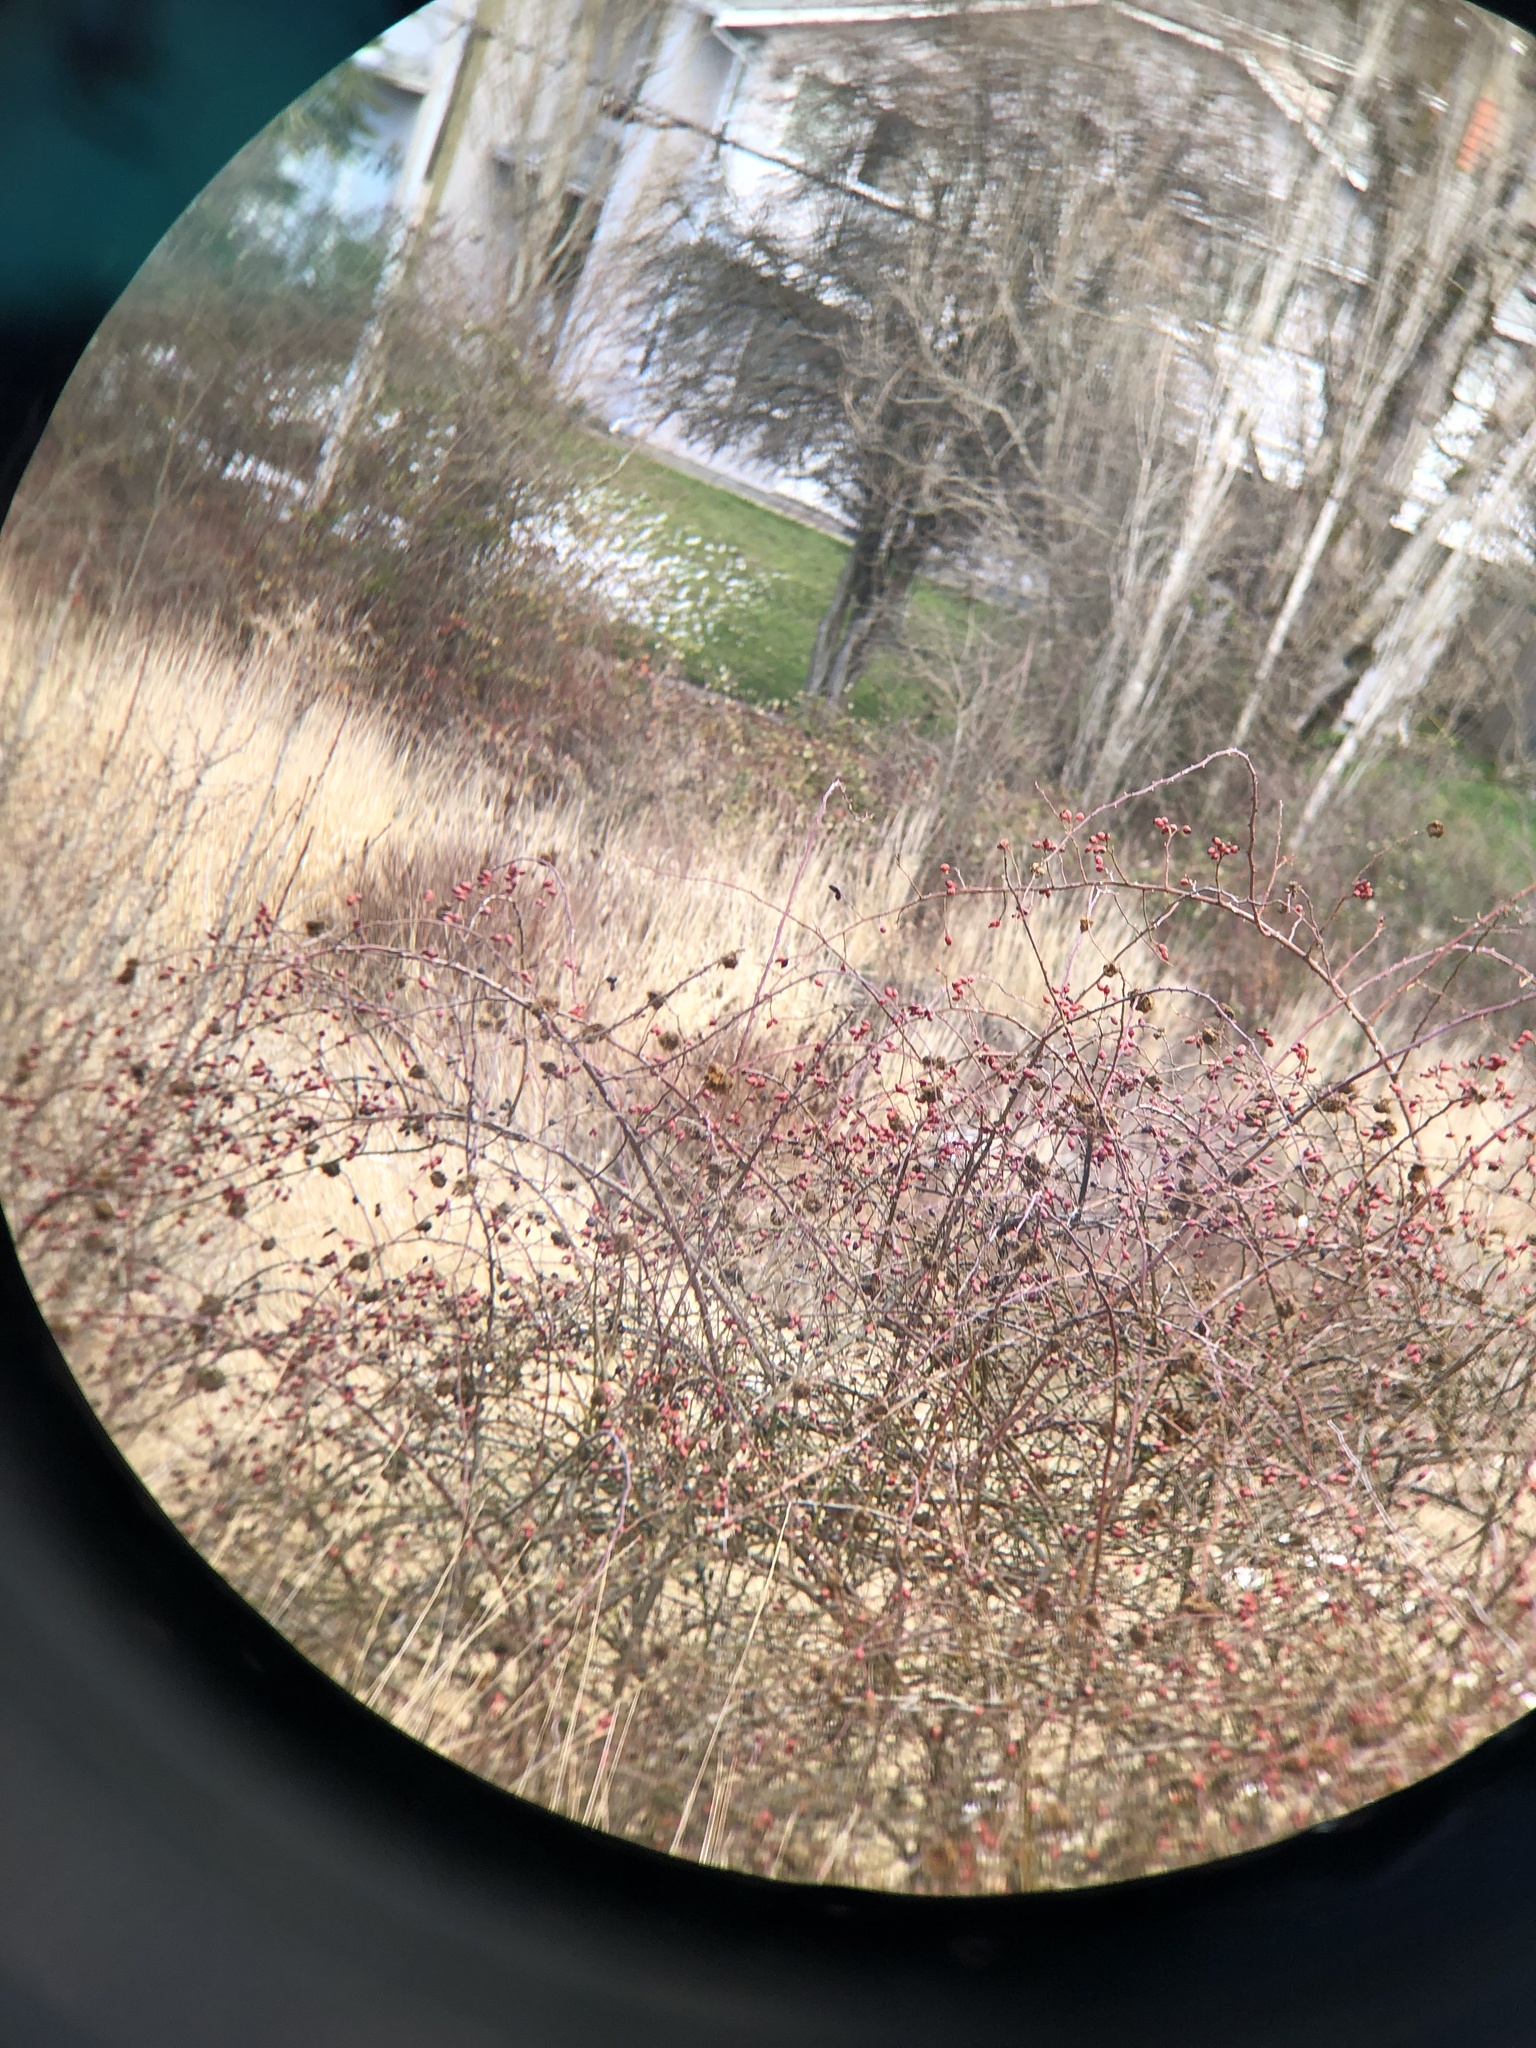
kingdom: Animalia
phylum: Arthropoda
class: Insecta
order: Hymenoptera
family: Cynipidae
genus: Diplolepis
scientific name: Diplolepis rosae
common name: Bedeguar gall
